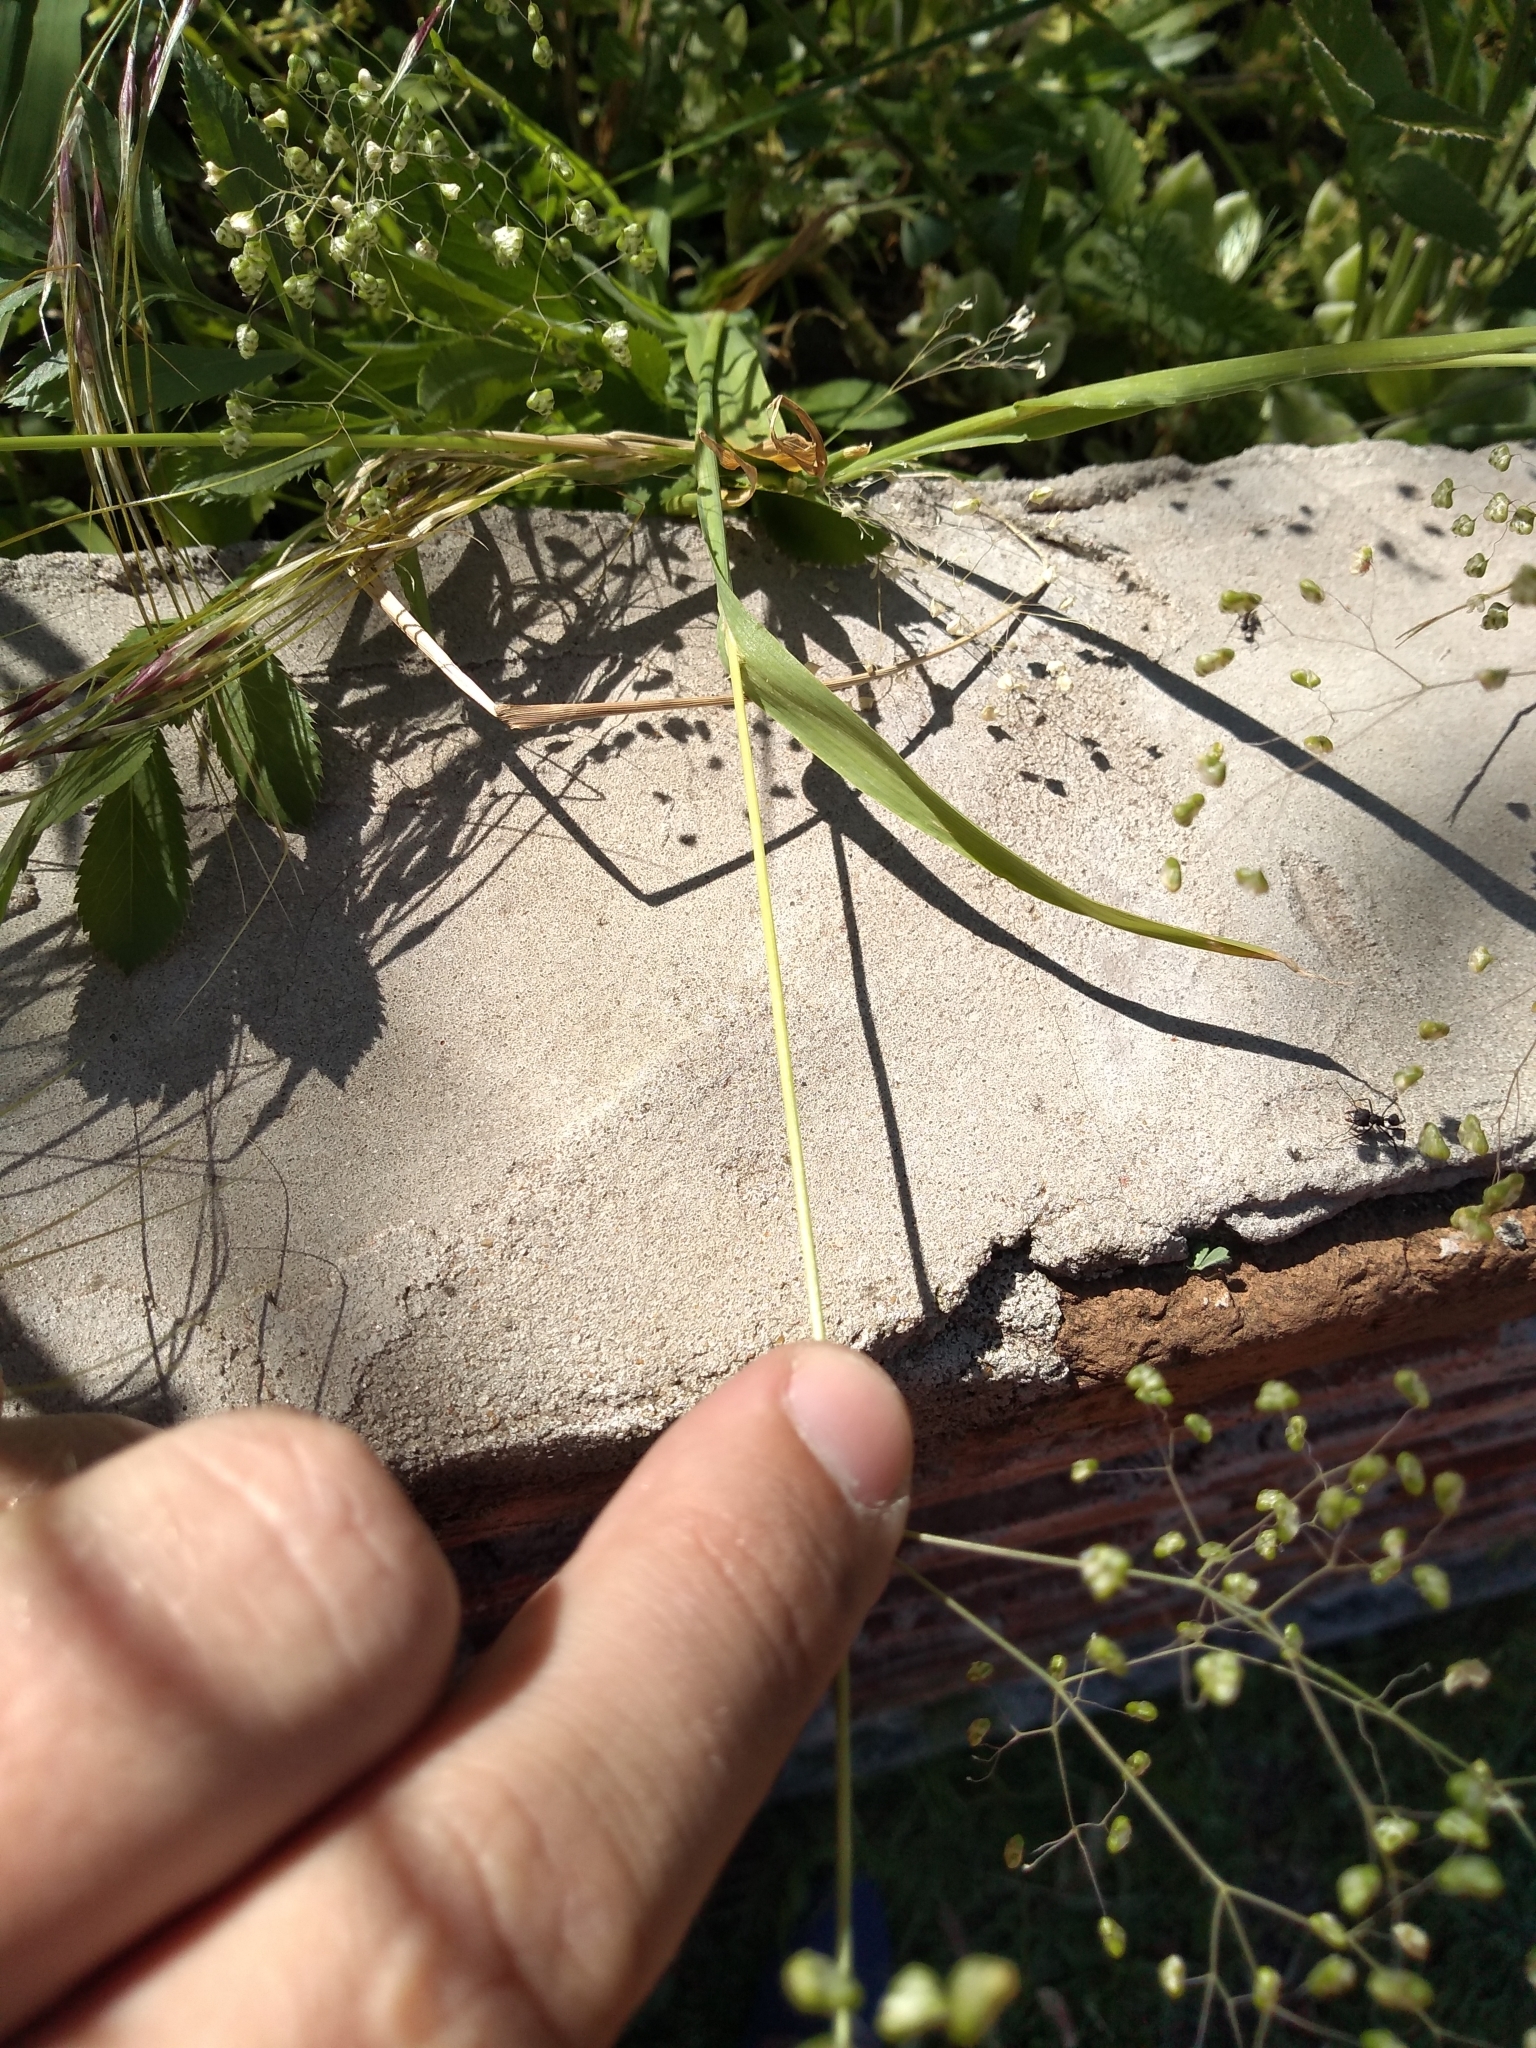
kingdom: Plantae
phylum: Tracheophyta
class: Liliopsida
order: Poales
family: Poaceae
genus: Briza
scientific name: Briza minor
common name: Lesser quaking-grass
